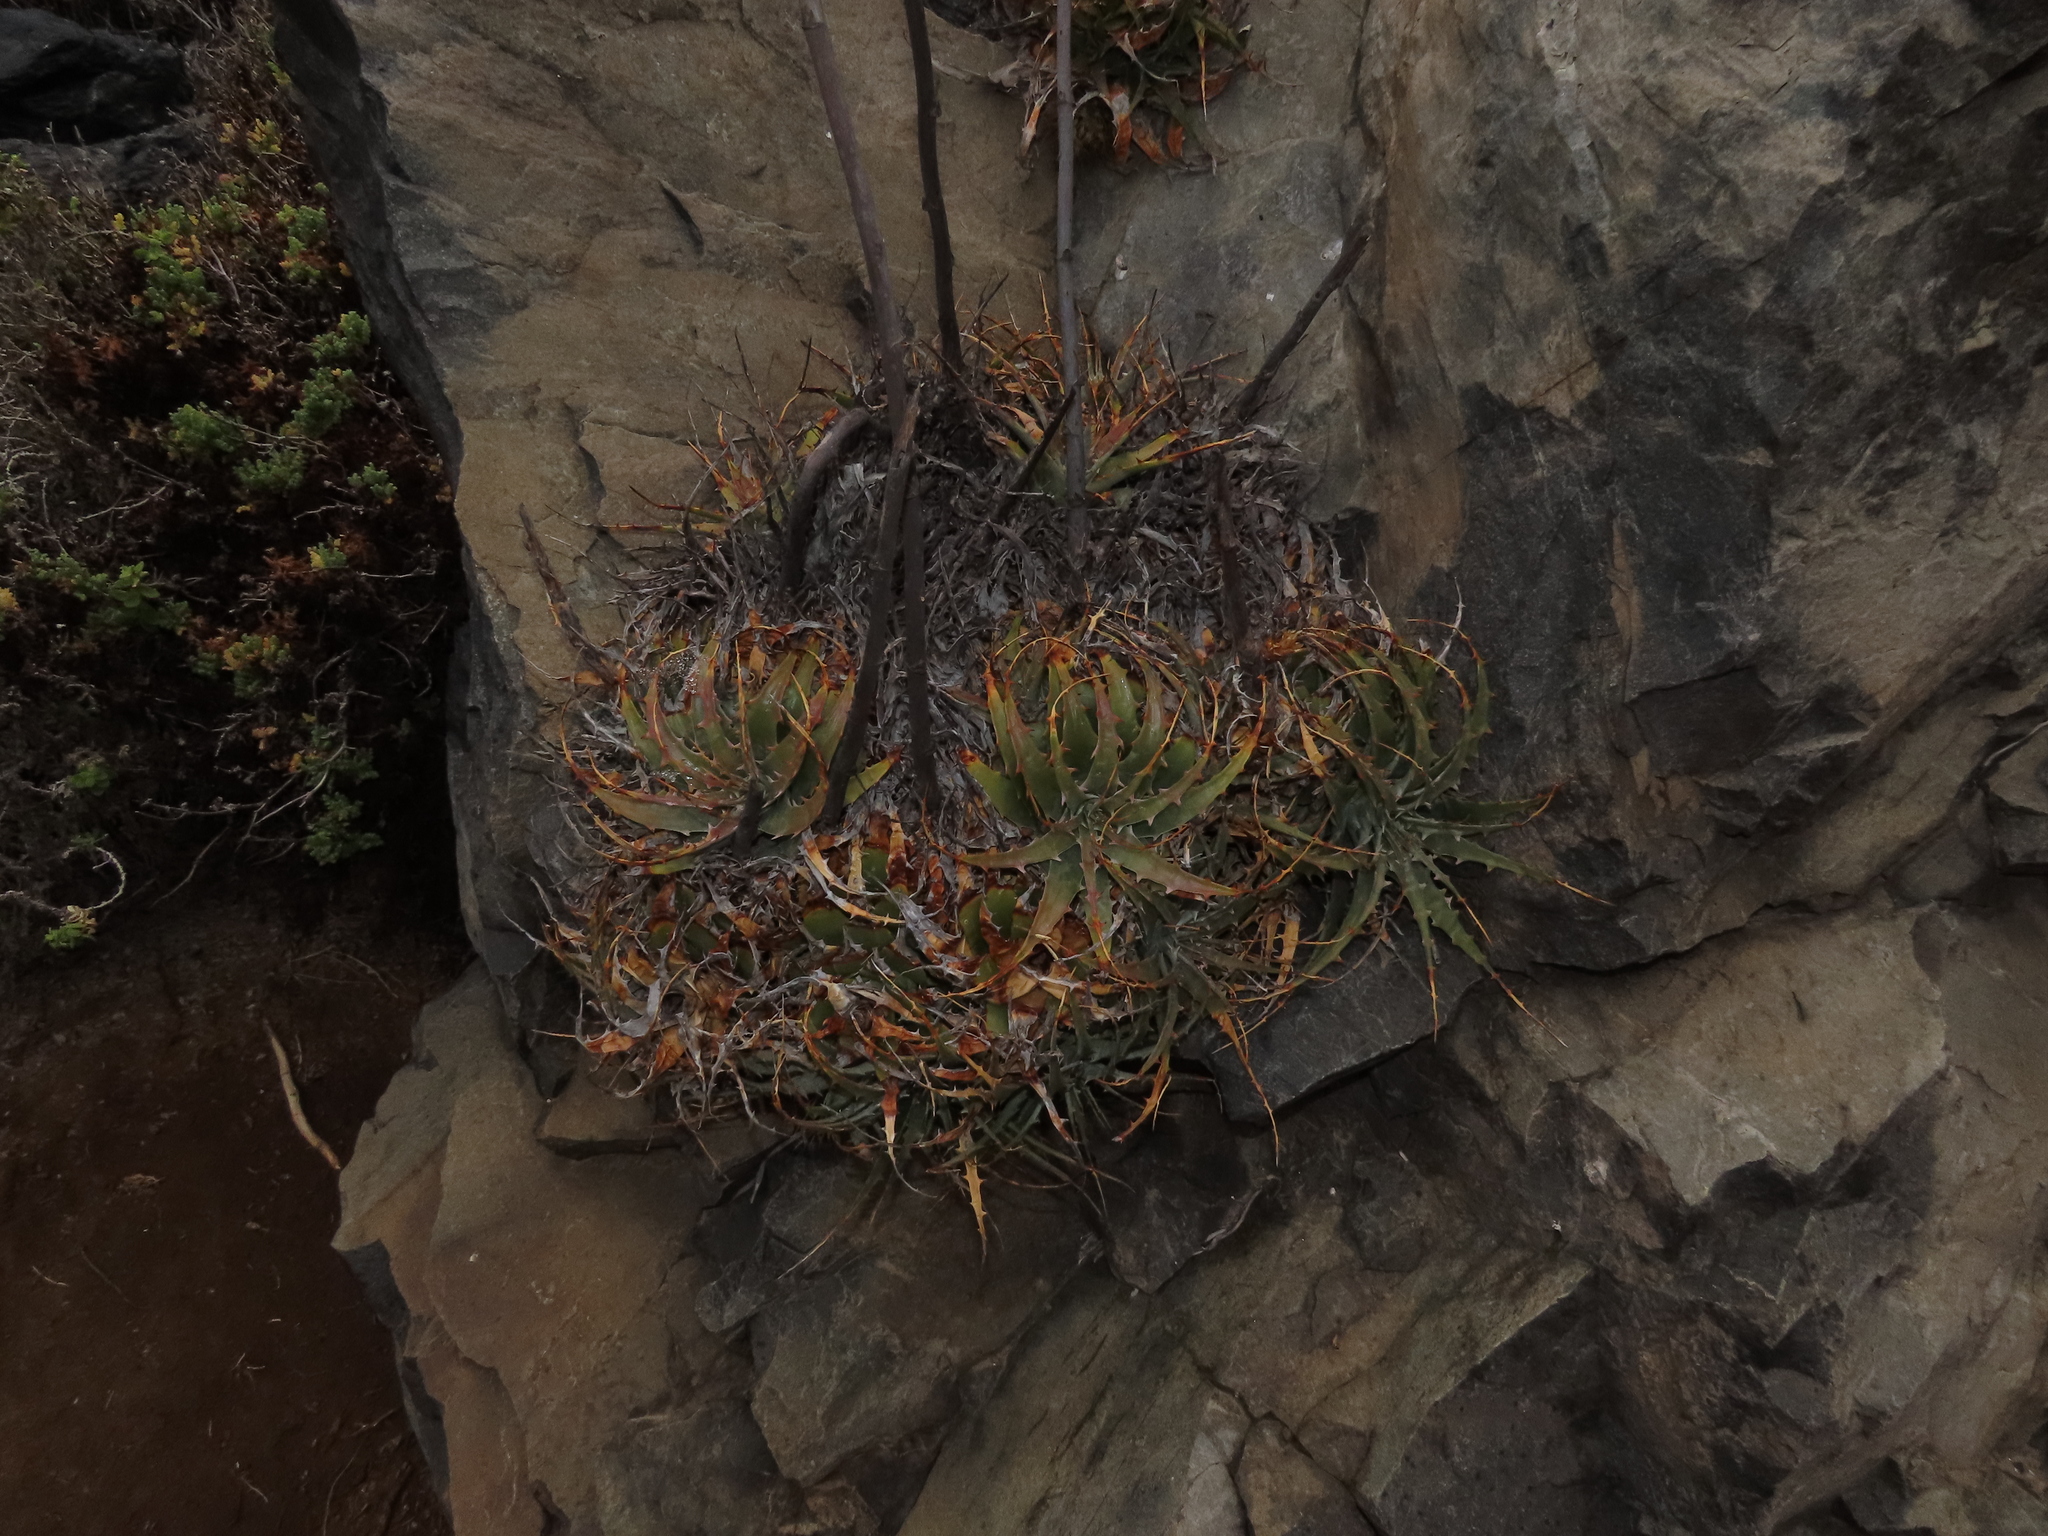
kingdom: Plantae
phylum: Tracheophyta
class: Liliopsida
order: Poales
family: Bromeliaceae
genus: Deuterocohnia
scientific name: Deuterocohnia chrysantha
